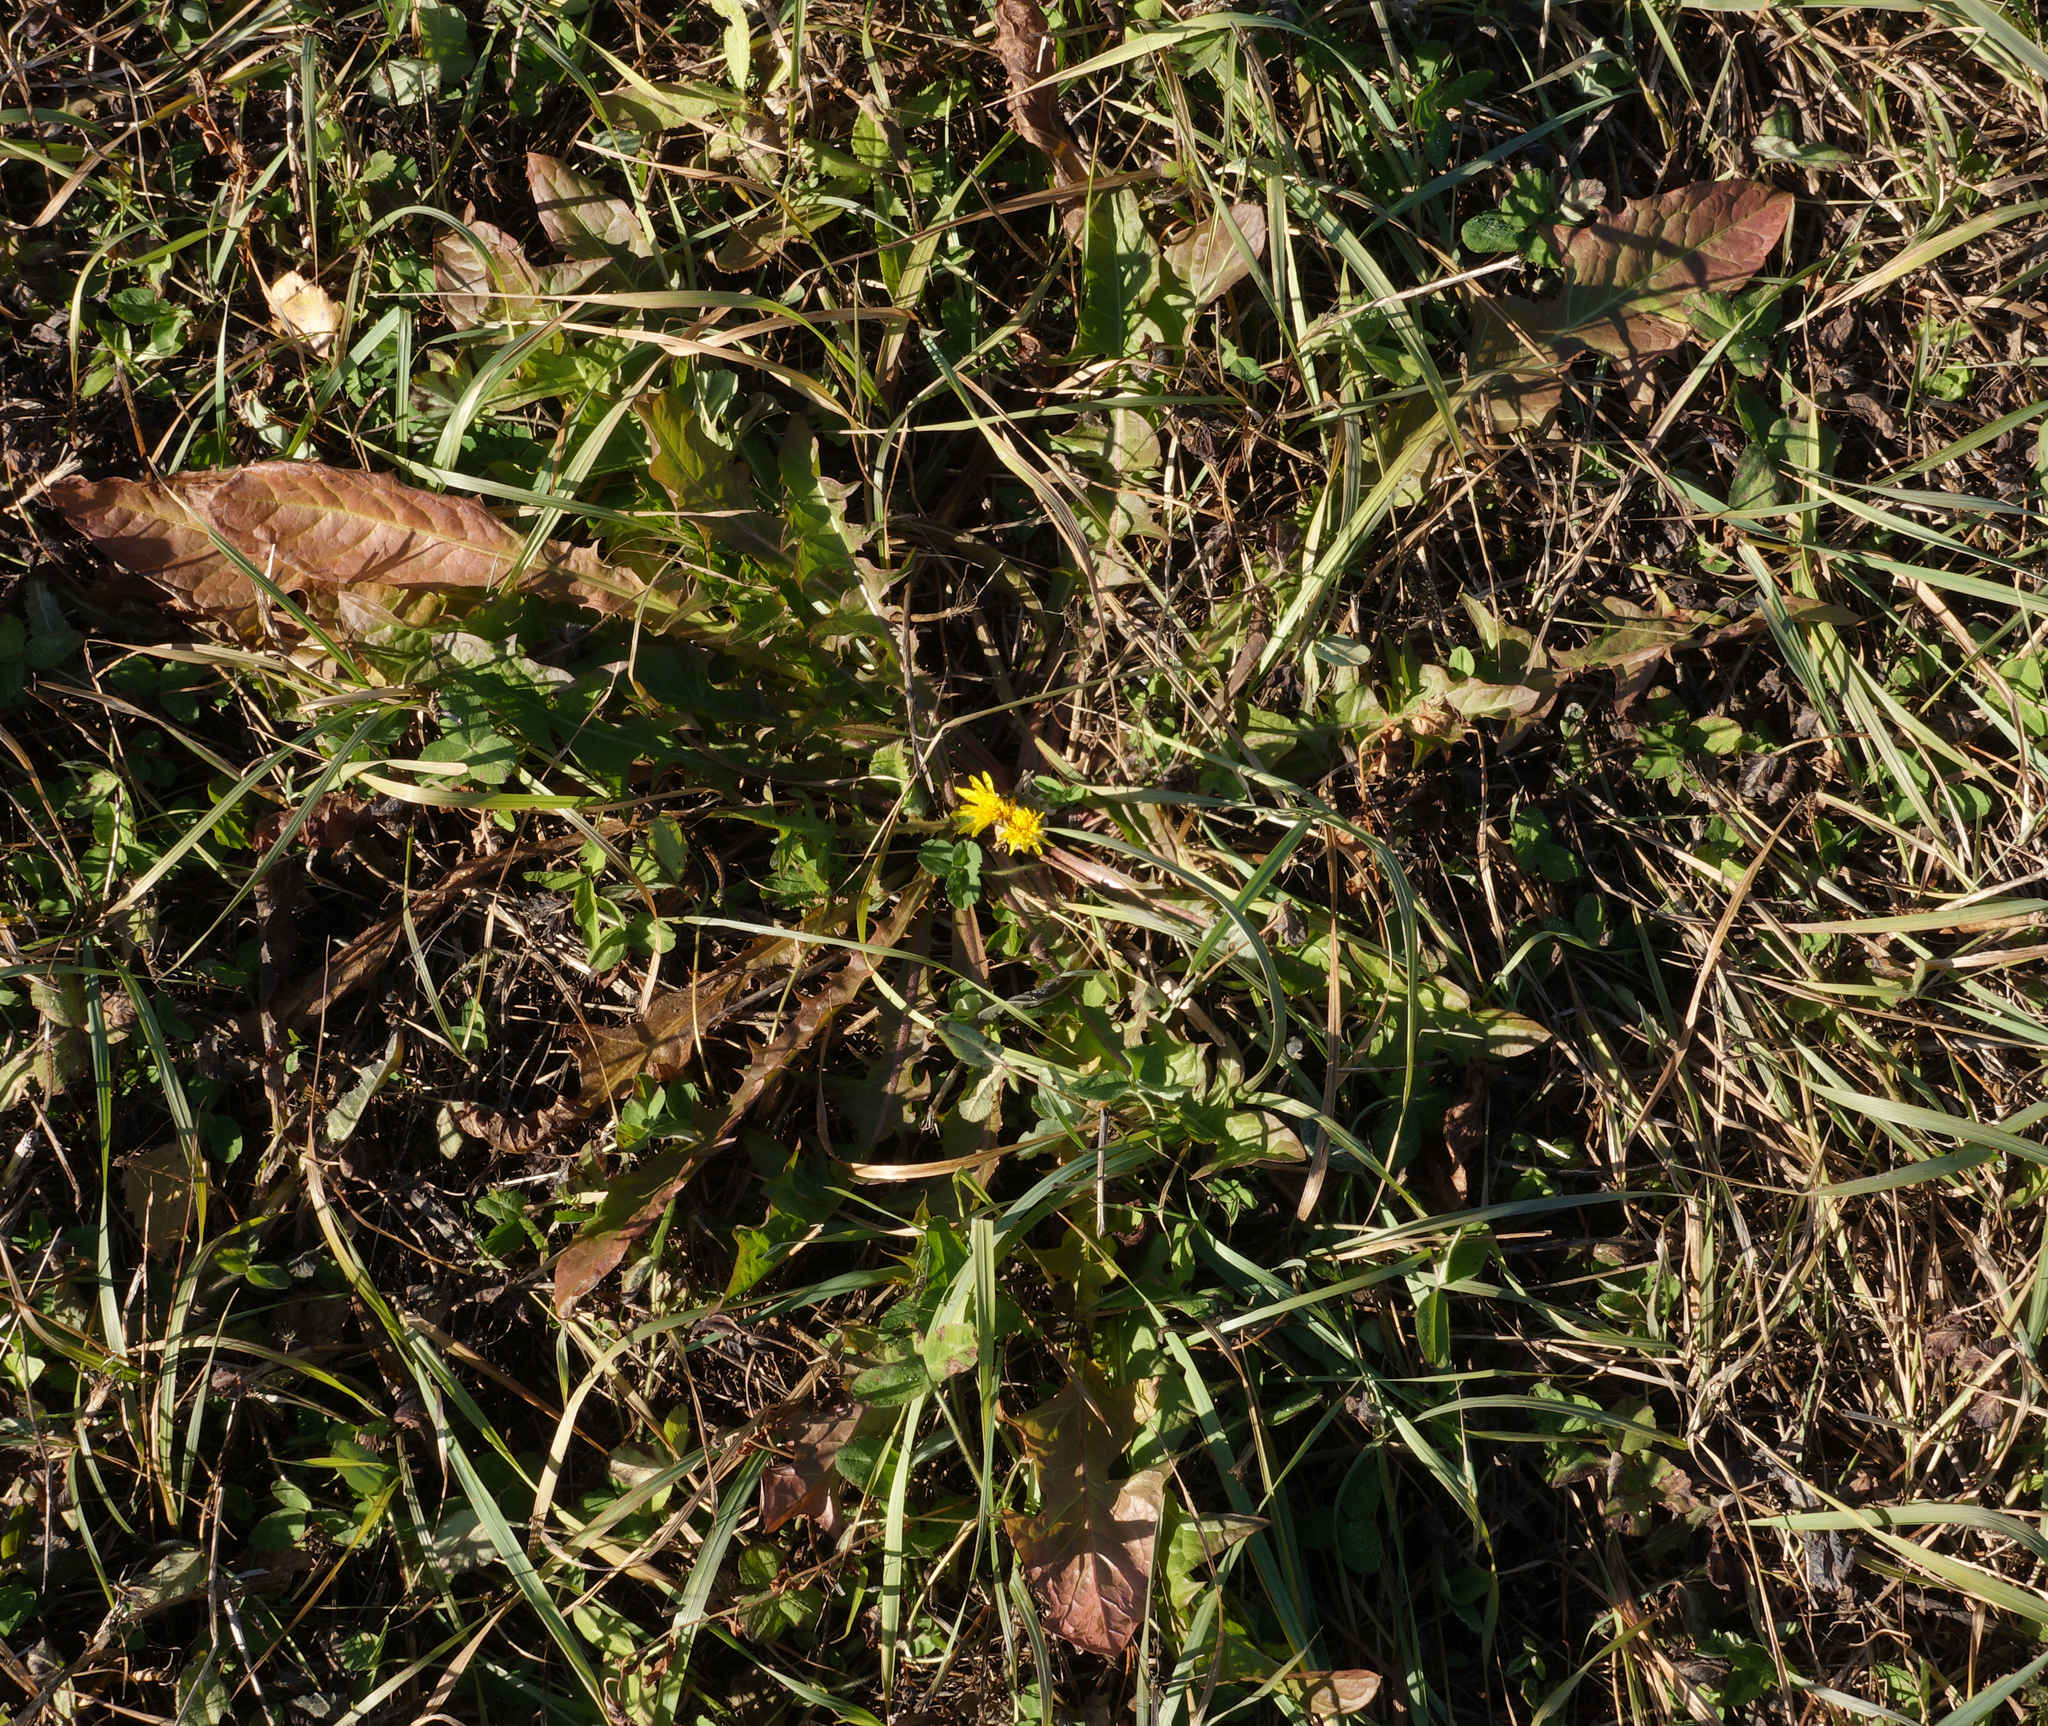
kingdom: Plantae
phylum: Tracheophyta
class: Magnoliopsida
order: Asterales
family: Asteraceae
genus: Taraxacum
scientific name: Taraxacum officinale
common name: Common dandelion
